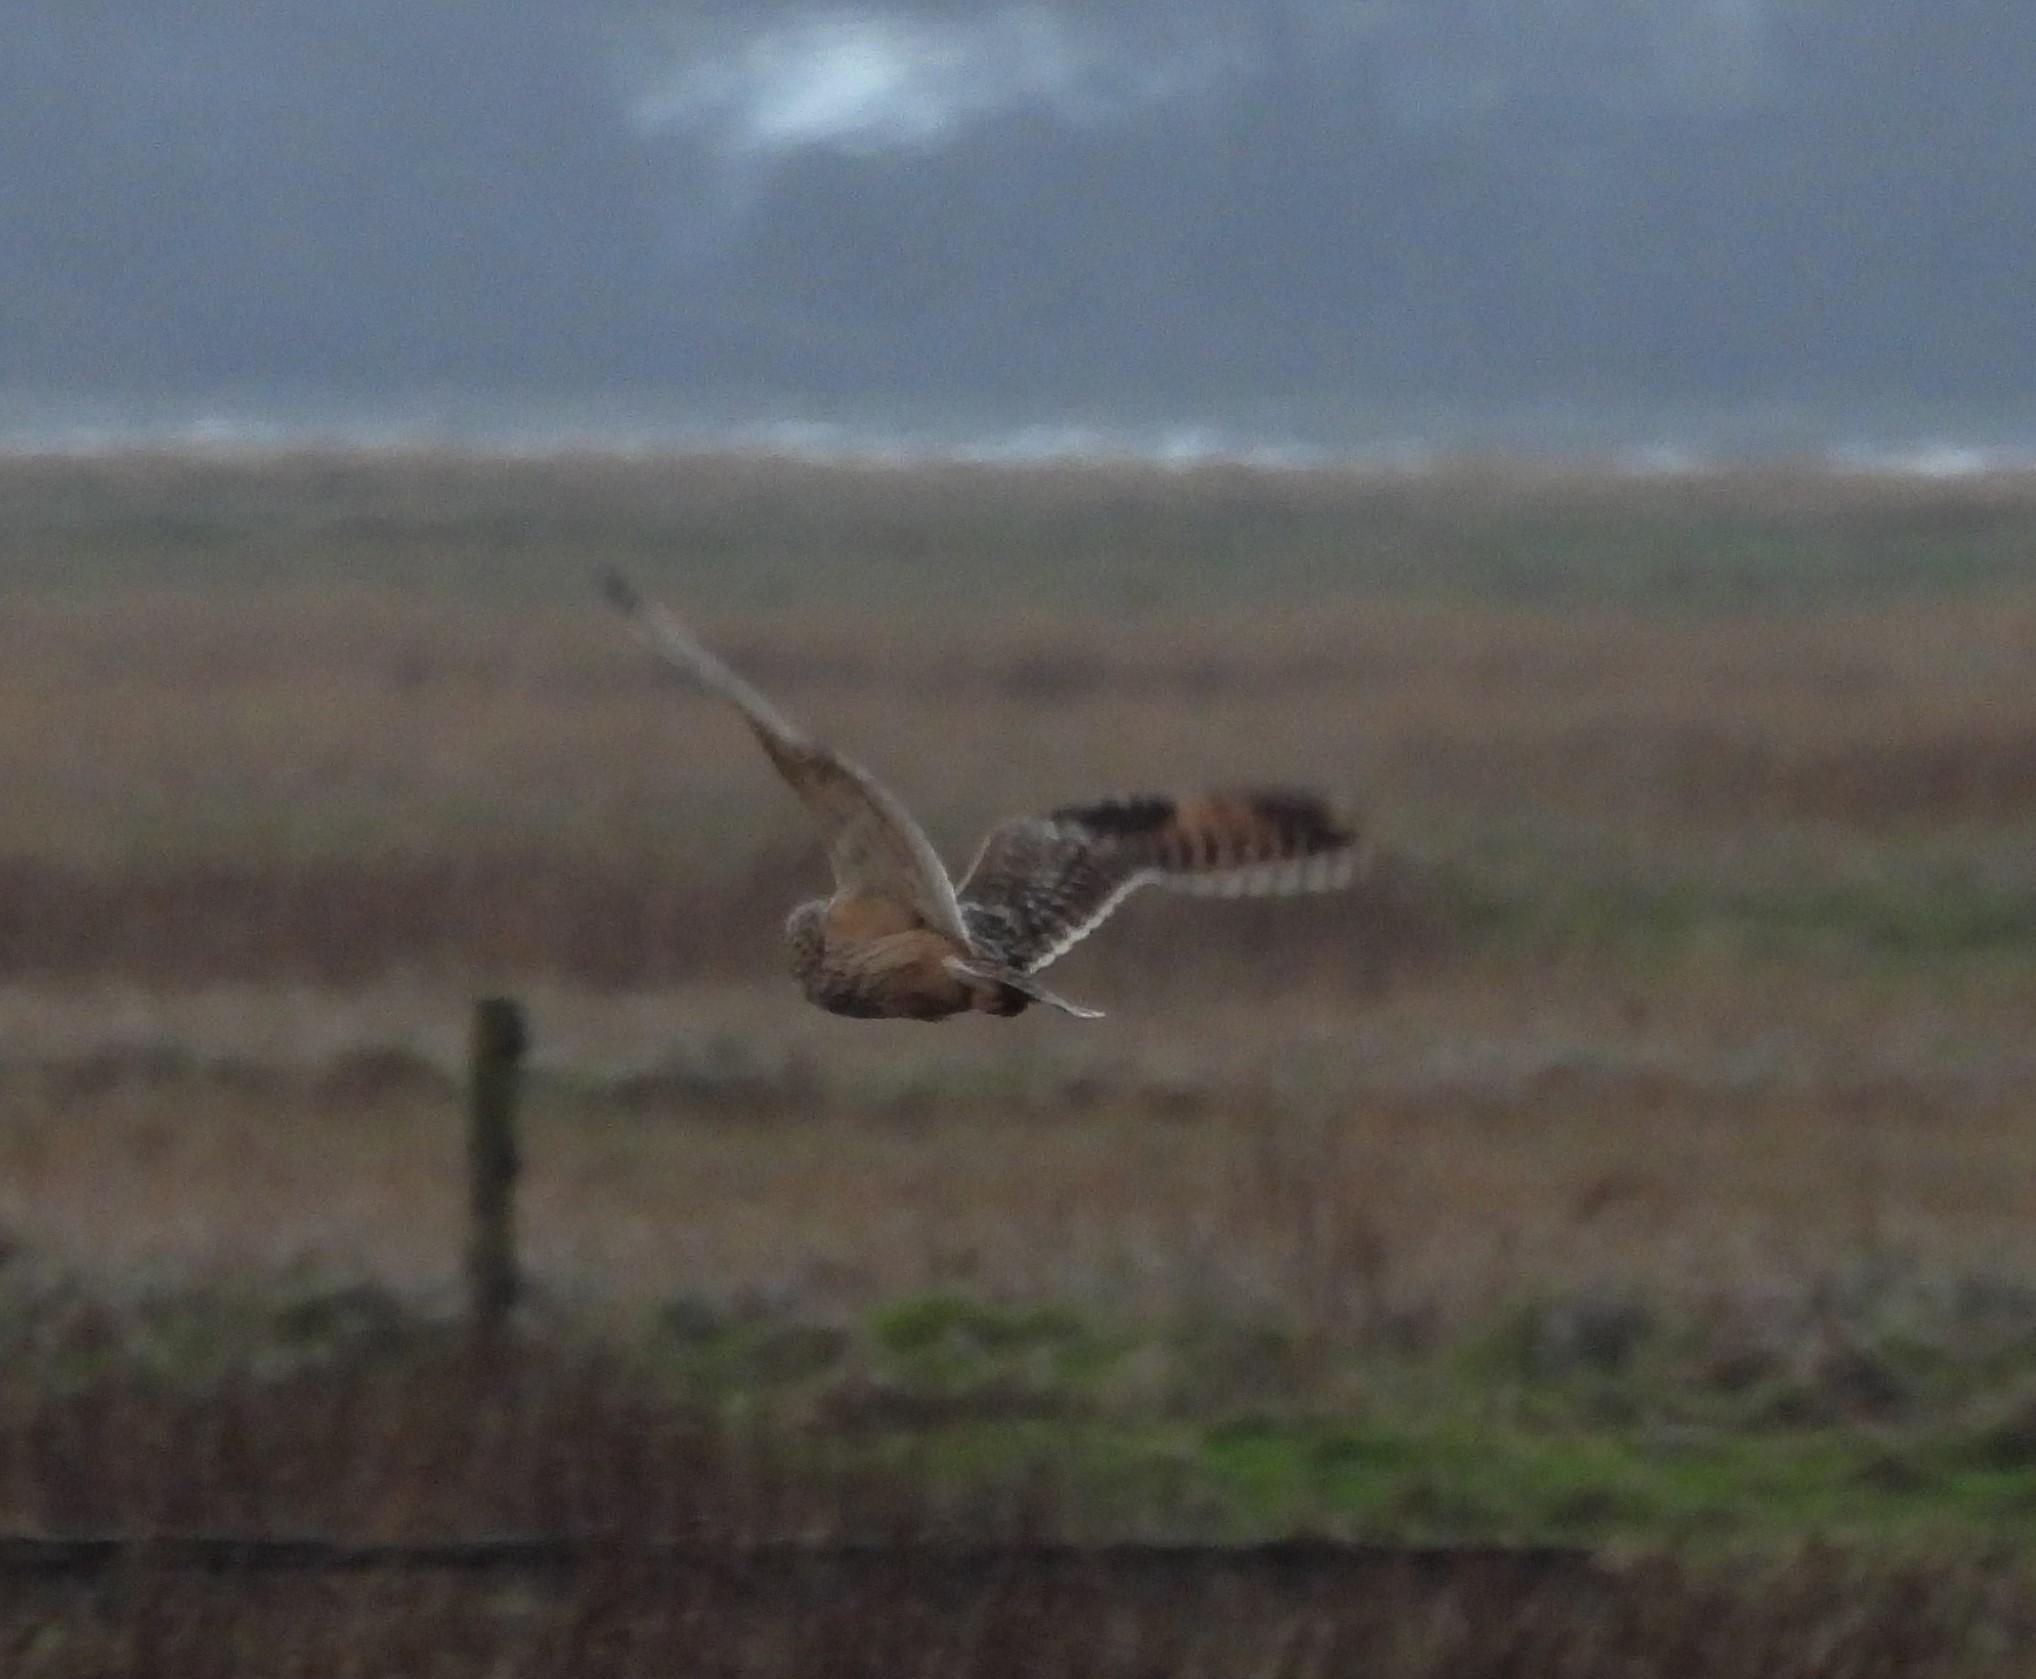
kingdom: Animalia
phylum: Chordata
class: Aves
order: Strigiformes
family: Strigidae
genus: Asio
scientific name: Asio flammeus
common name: Short-eared owl
